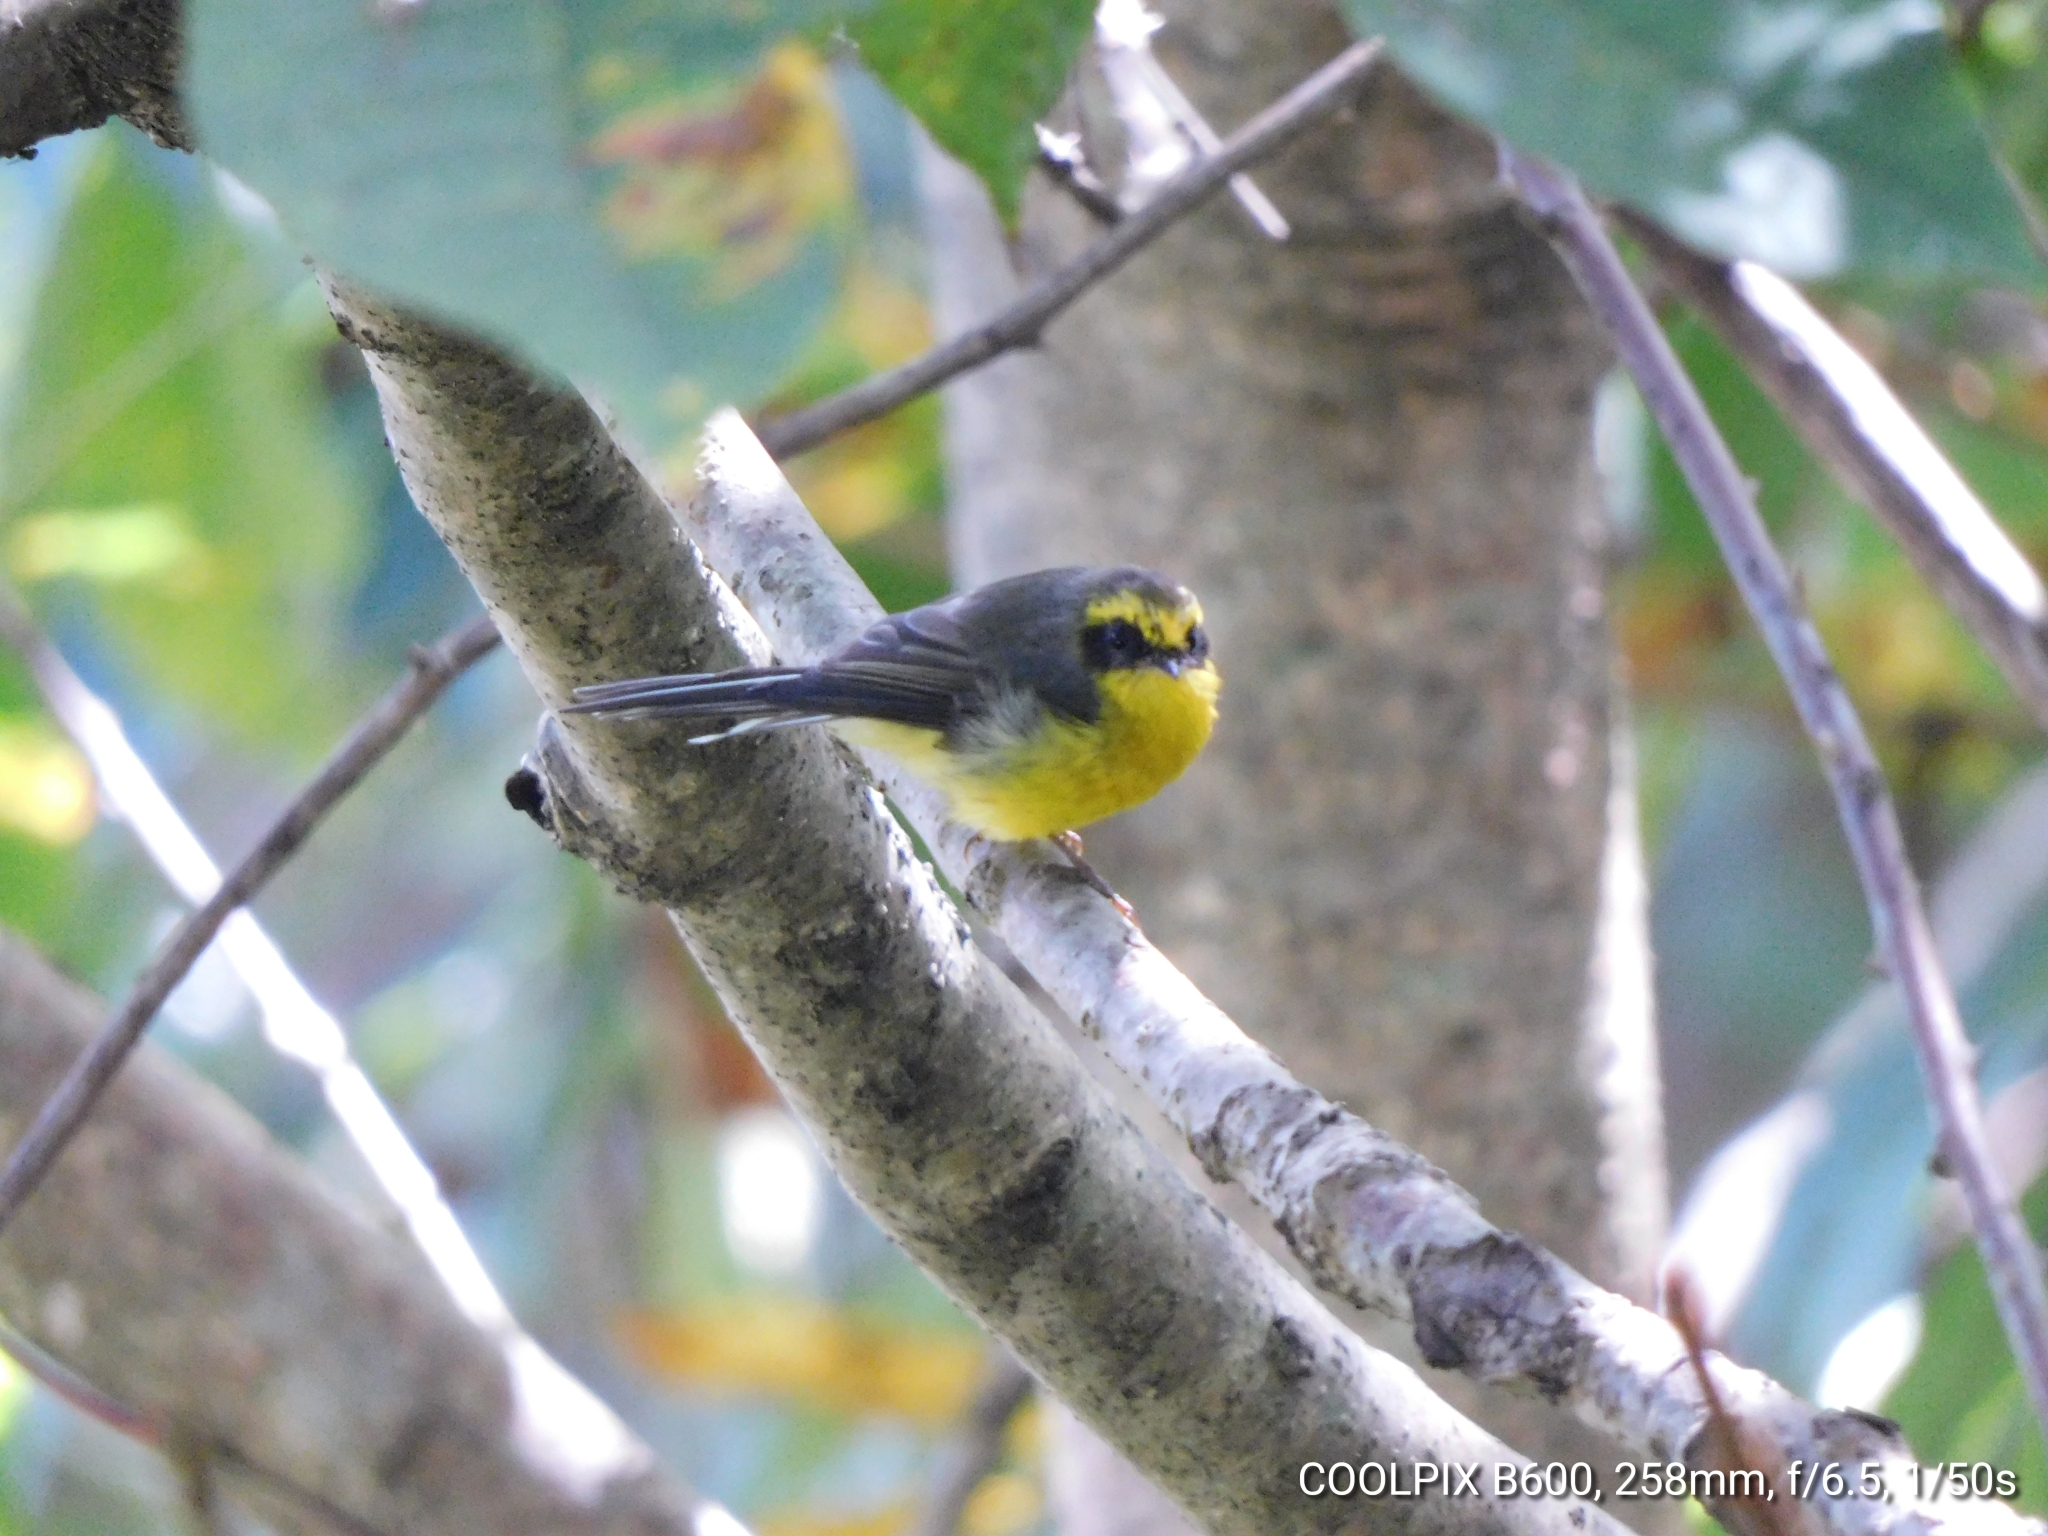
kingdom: Animalia
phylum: Chordata
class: Aves
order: Passeriformes
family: Stenostiridae
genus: Chelidorhynx
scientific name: Chelidorhynx hypoxantha
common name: Yellow-bellied fantail
